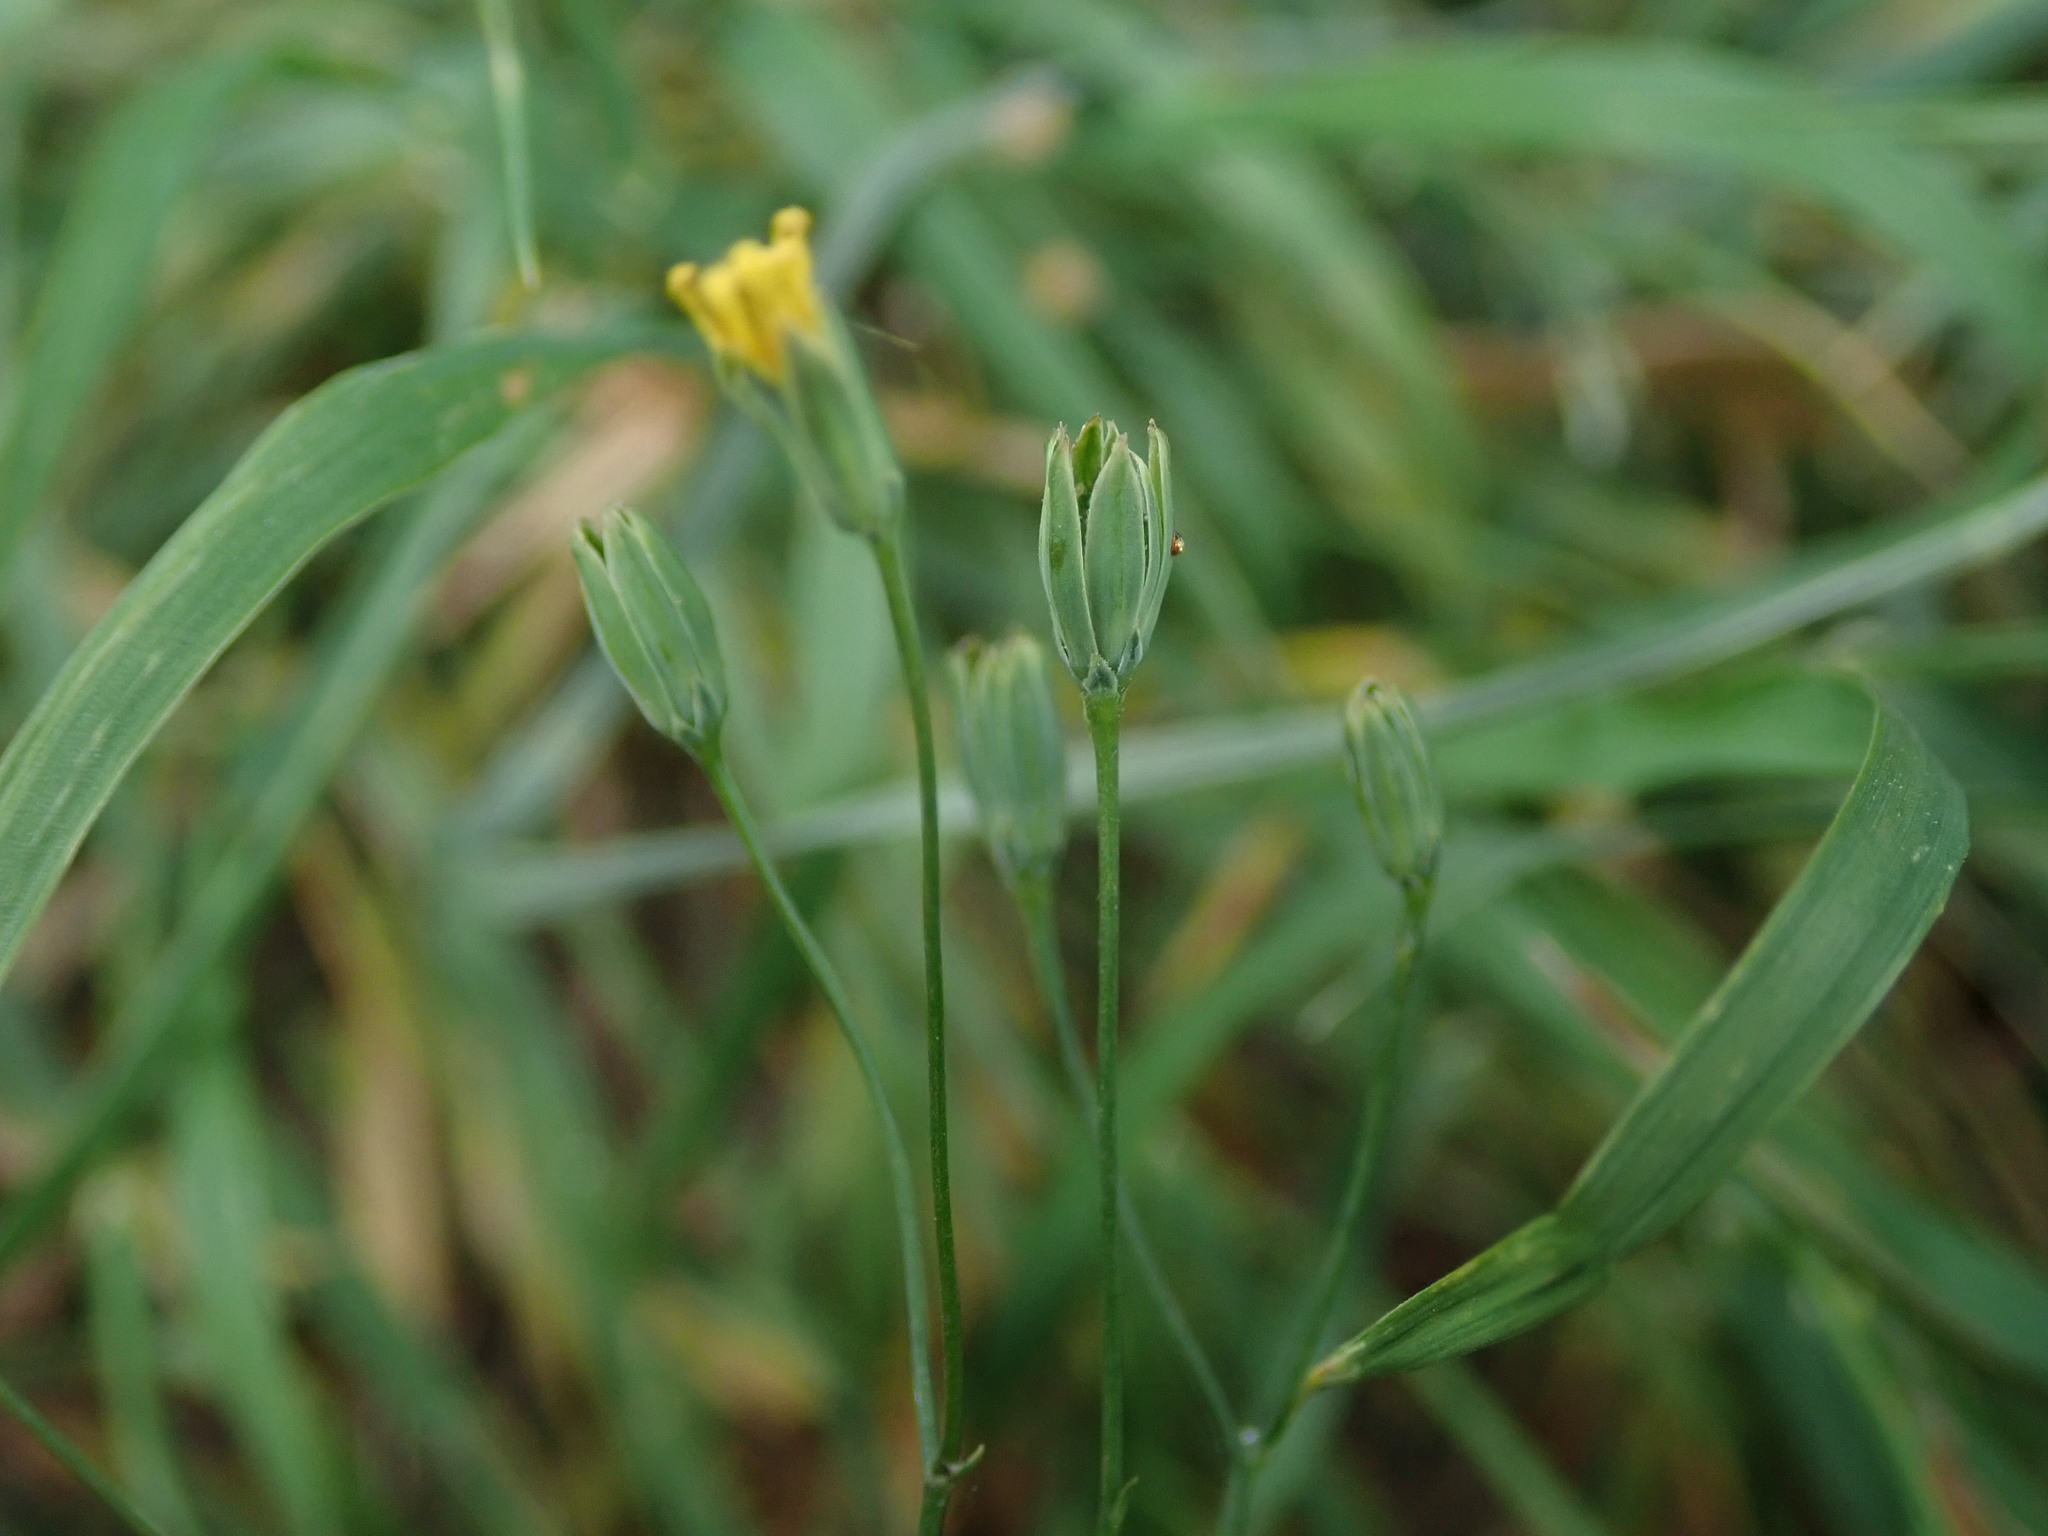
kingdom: Plantae
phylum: Tracheophyta
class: Magnoliopsida
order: Asterales
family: Asteraceae
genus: Lapsana
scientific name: Lapsana communis
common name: Nipplewort
